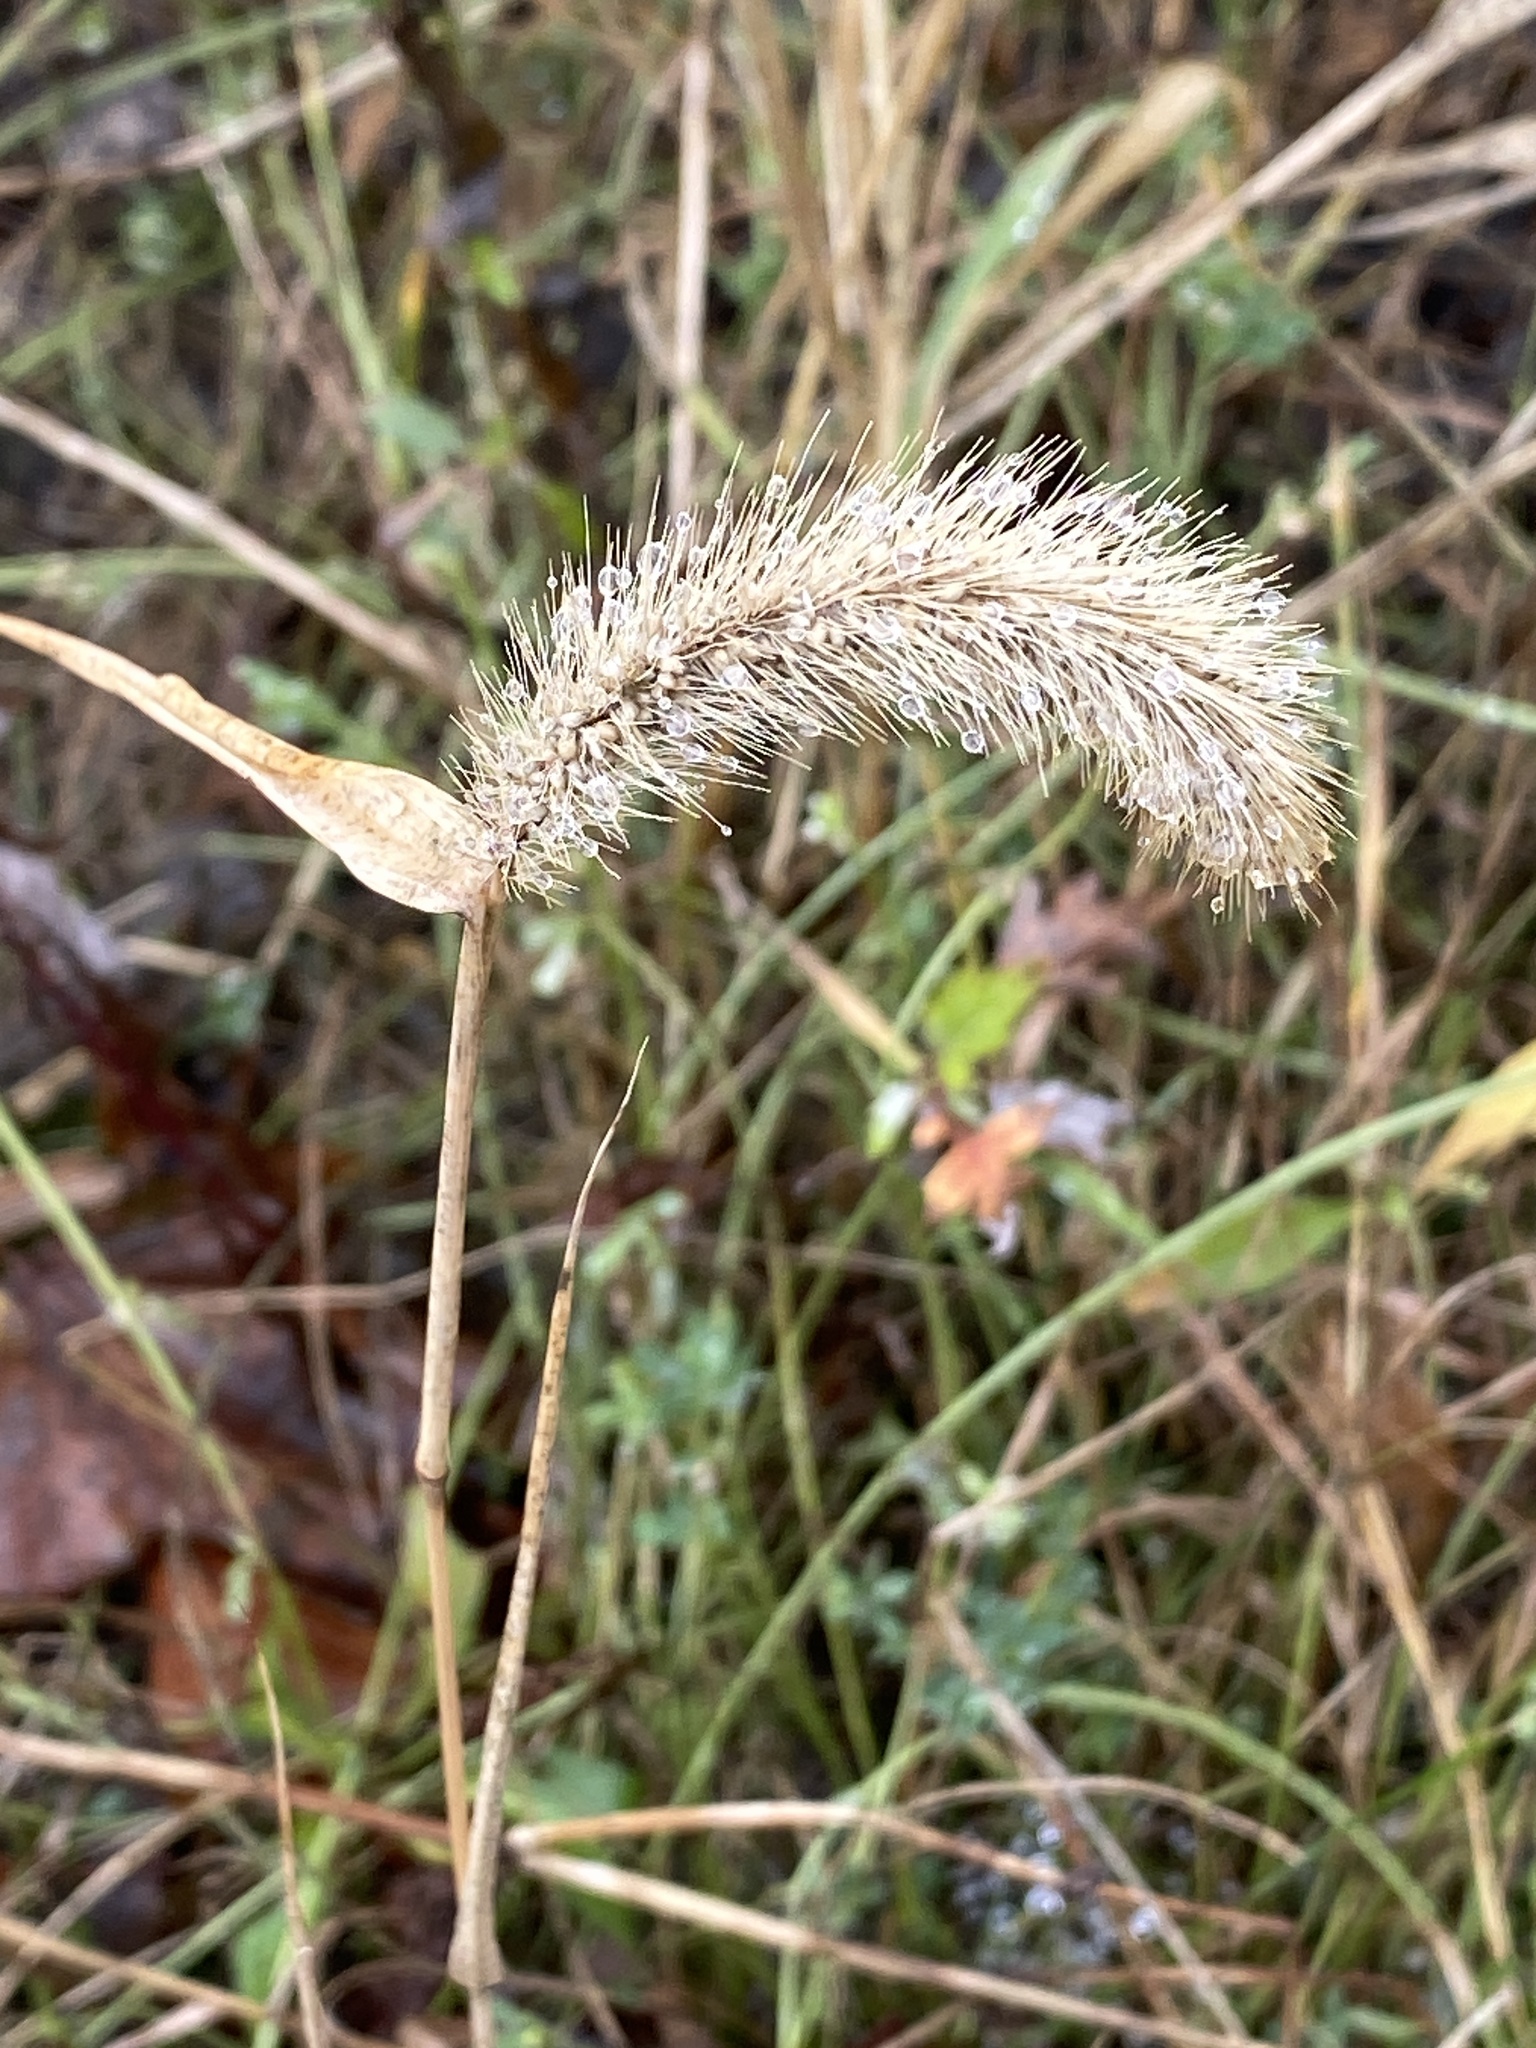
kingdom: Plantae
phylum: Tracheophyta
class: Liliopsida
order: Poales
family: Poaceae
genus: Setaria
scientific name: Setaria faberi
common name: Nodding bristle-grass
